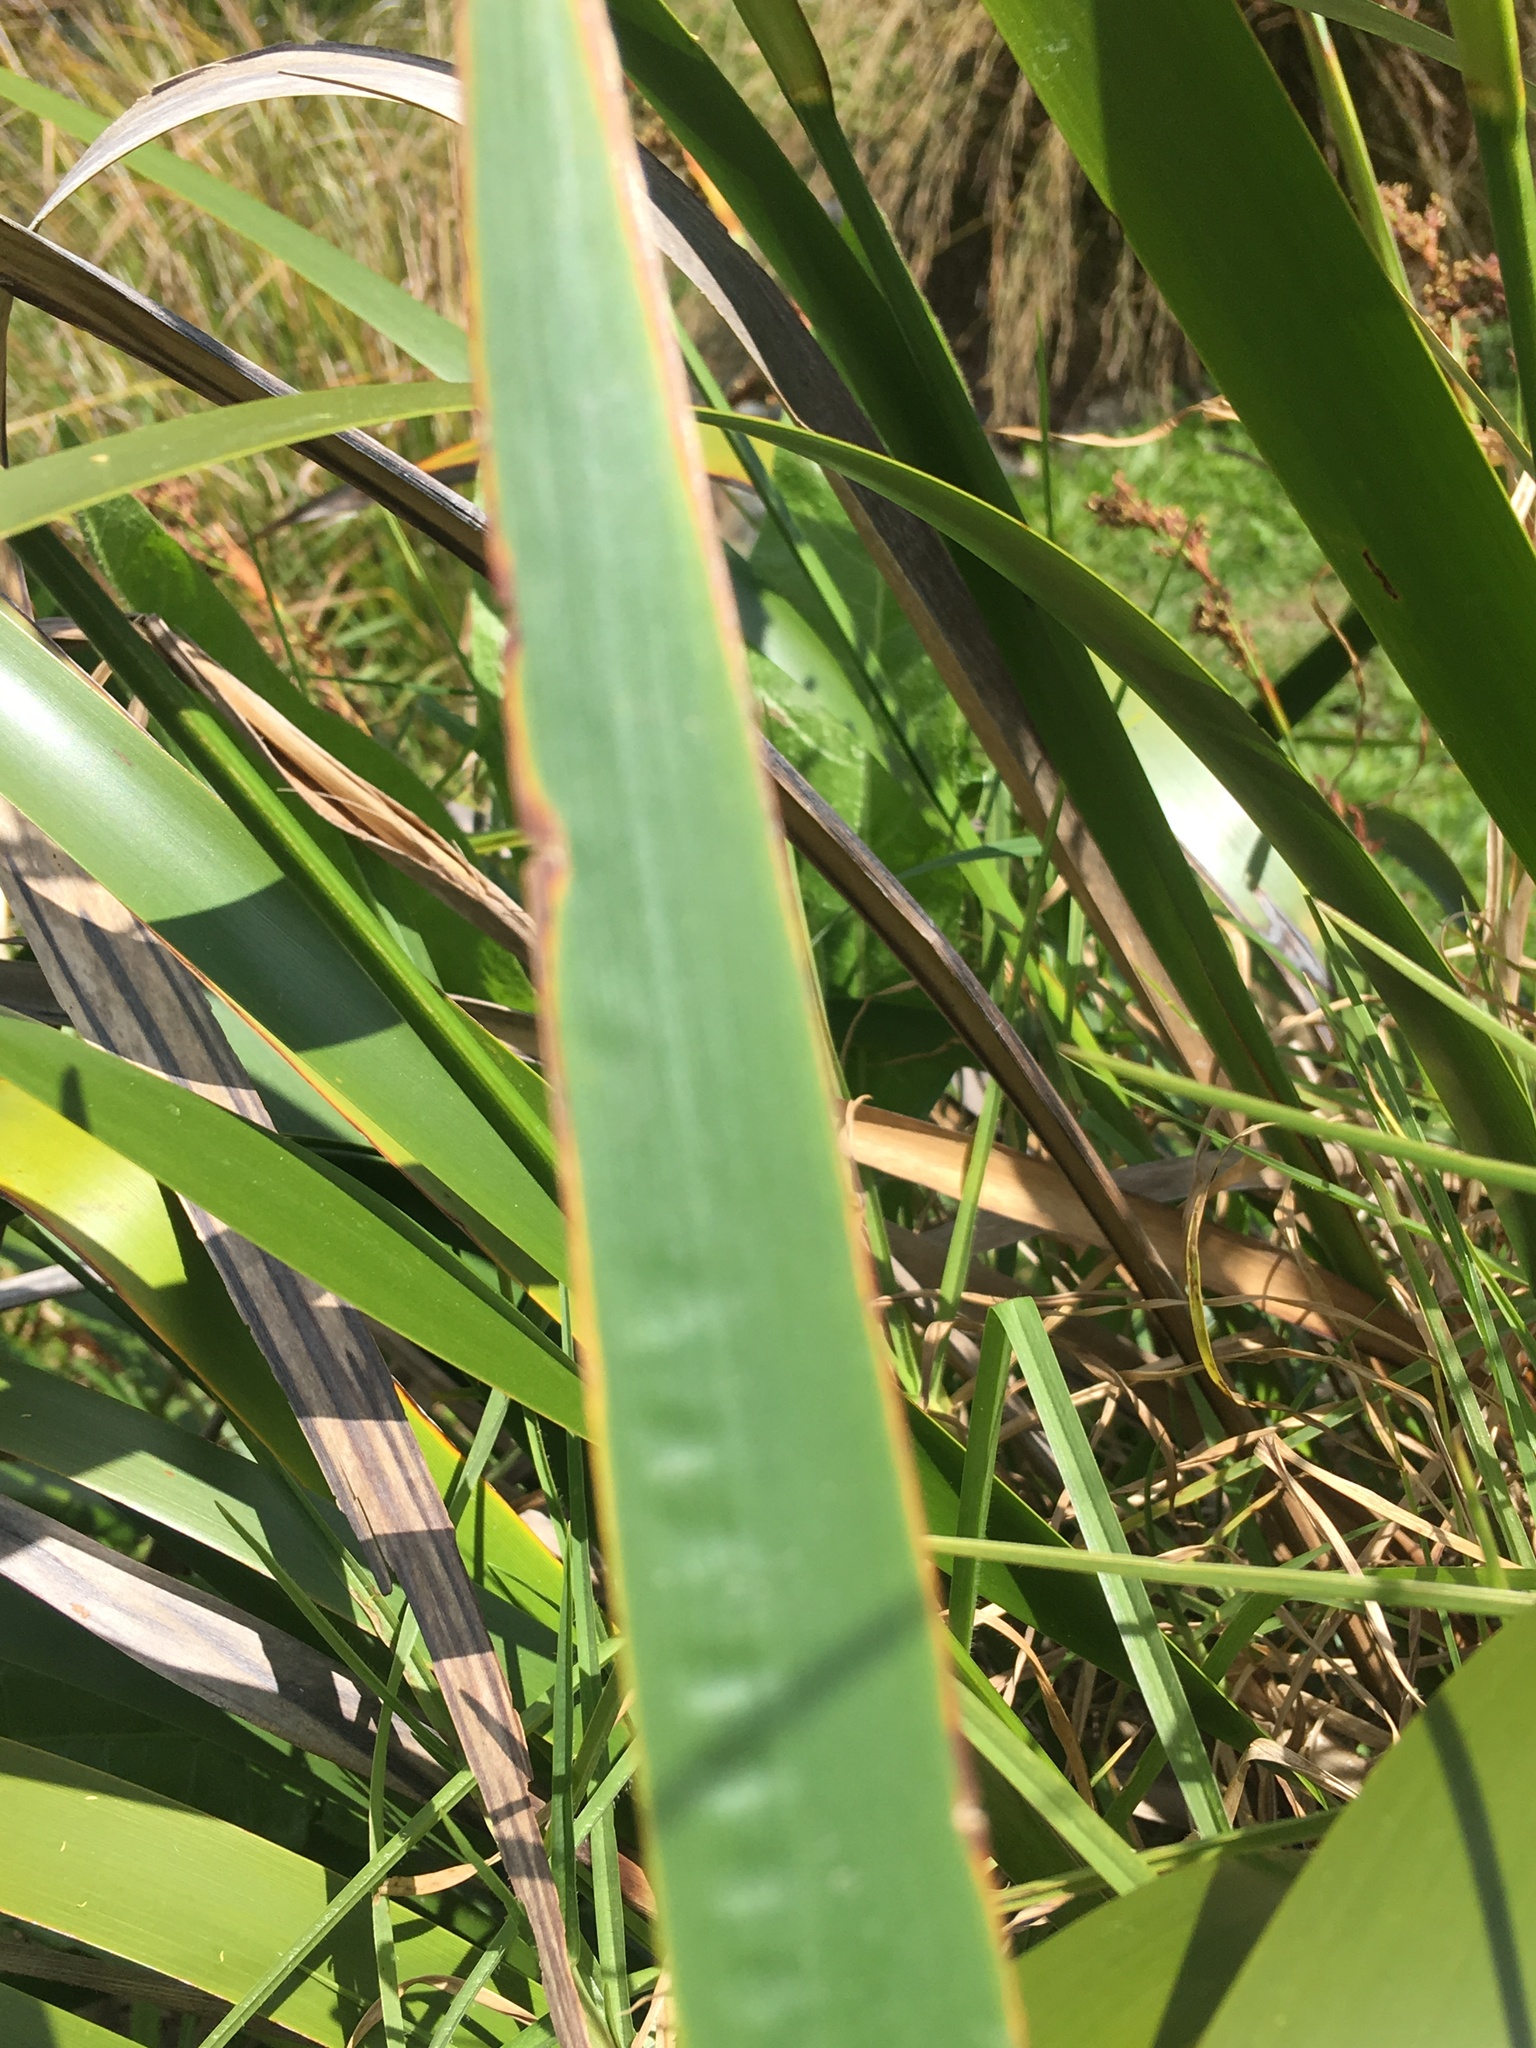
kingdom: Plantae
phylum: Tracheophyta
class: Liliopsida
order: Poales
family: Cyperaceae
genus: Machaerina
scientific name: Machaerina sinclairii
